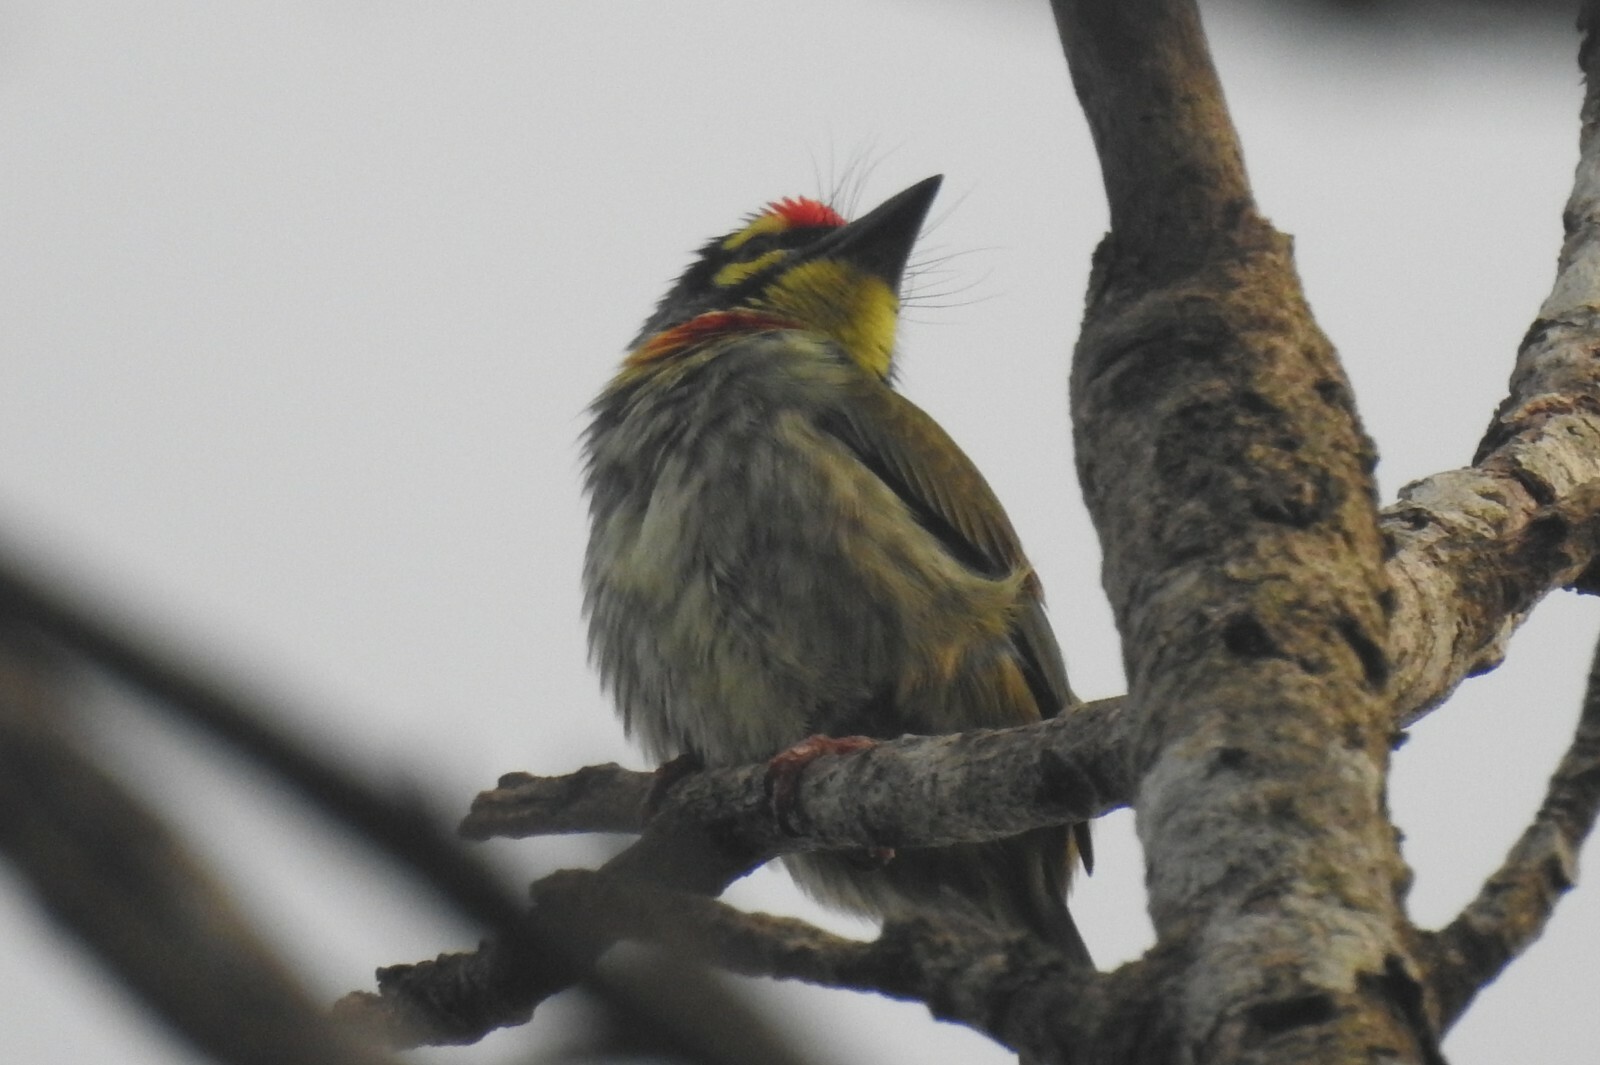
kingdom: Animalia
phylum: Chordata
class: Aves
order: Piciformes
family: Megalaimidae
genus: Psilopogon
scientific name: Psilopogon haemacephalus
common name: Coppersmith barbet
